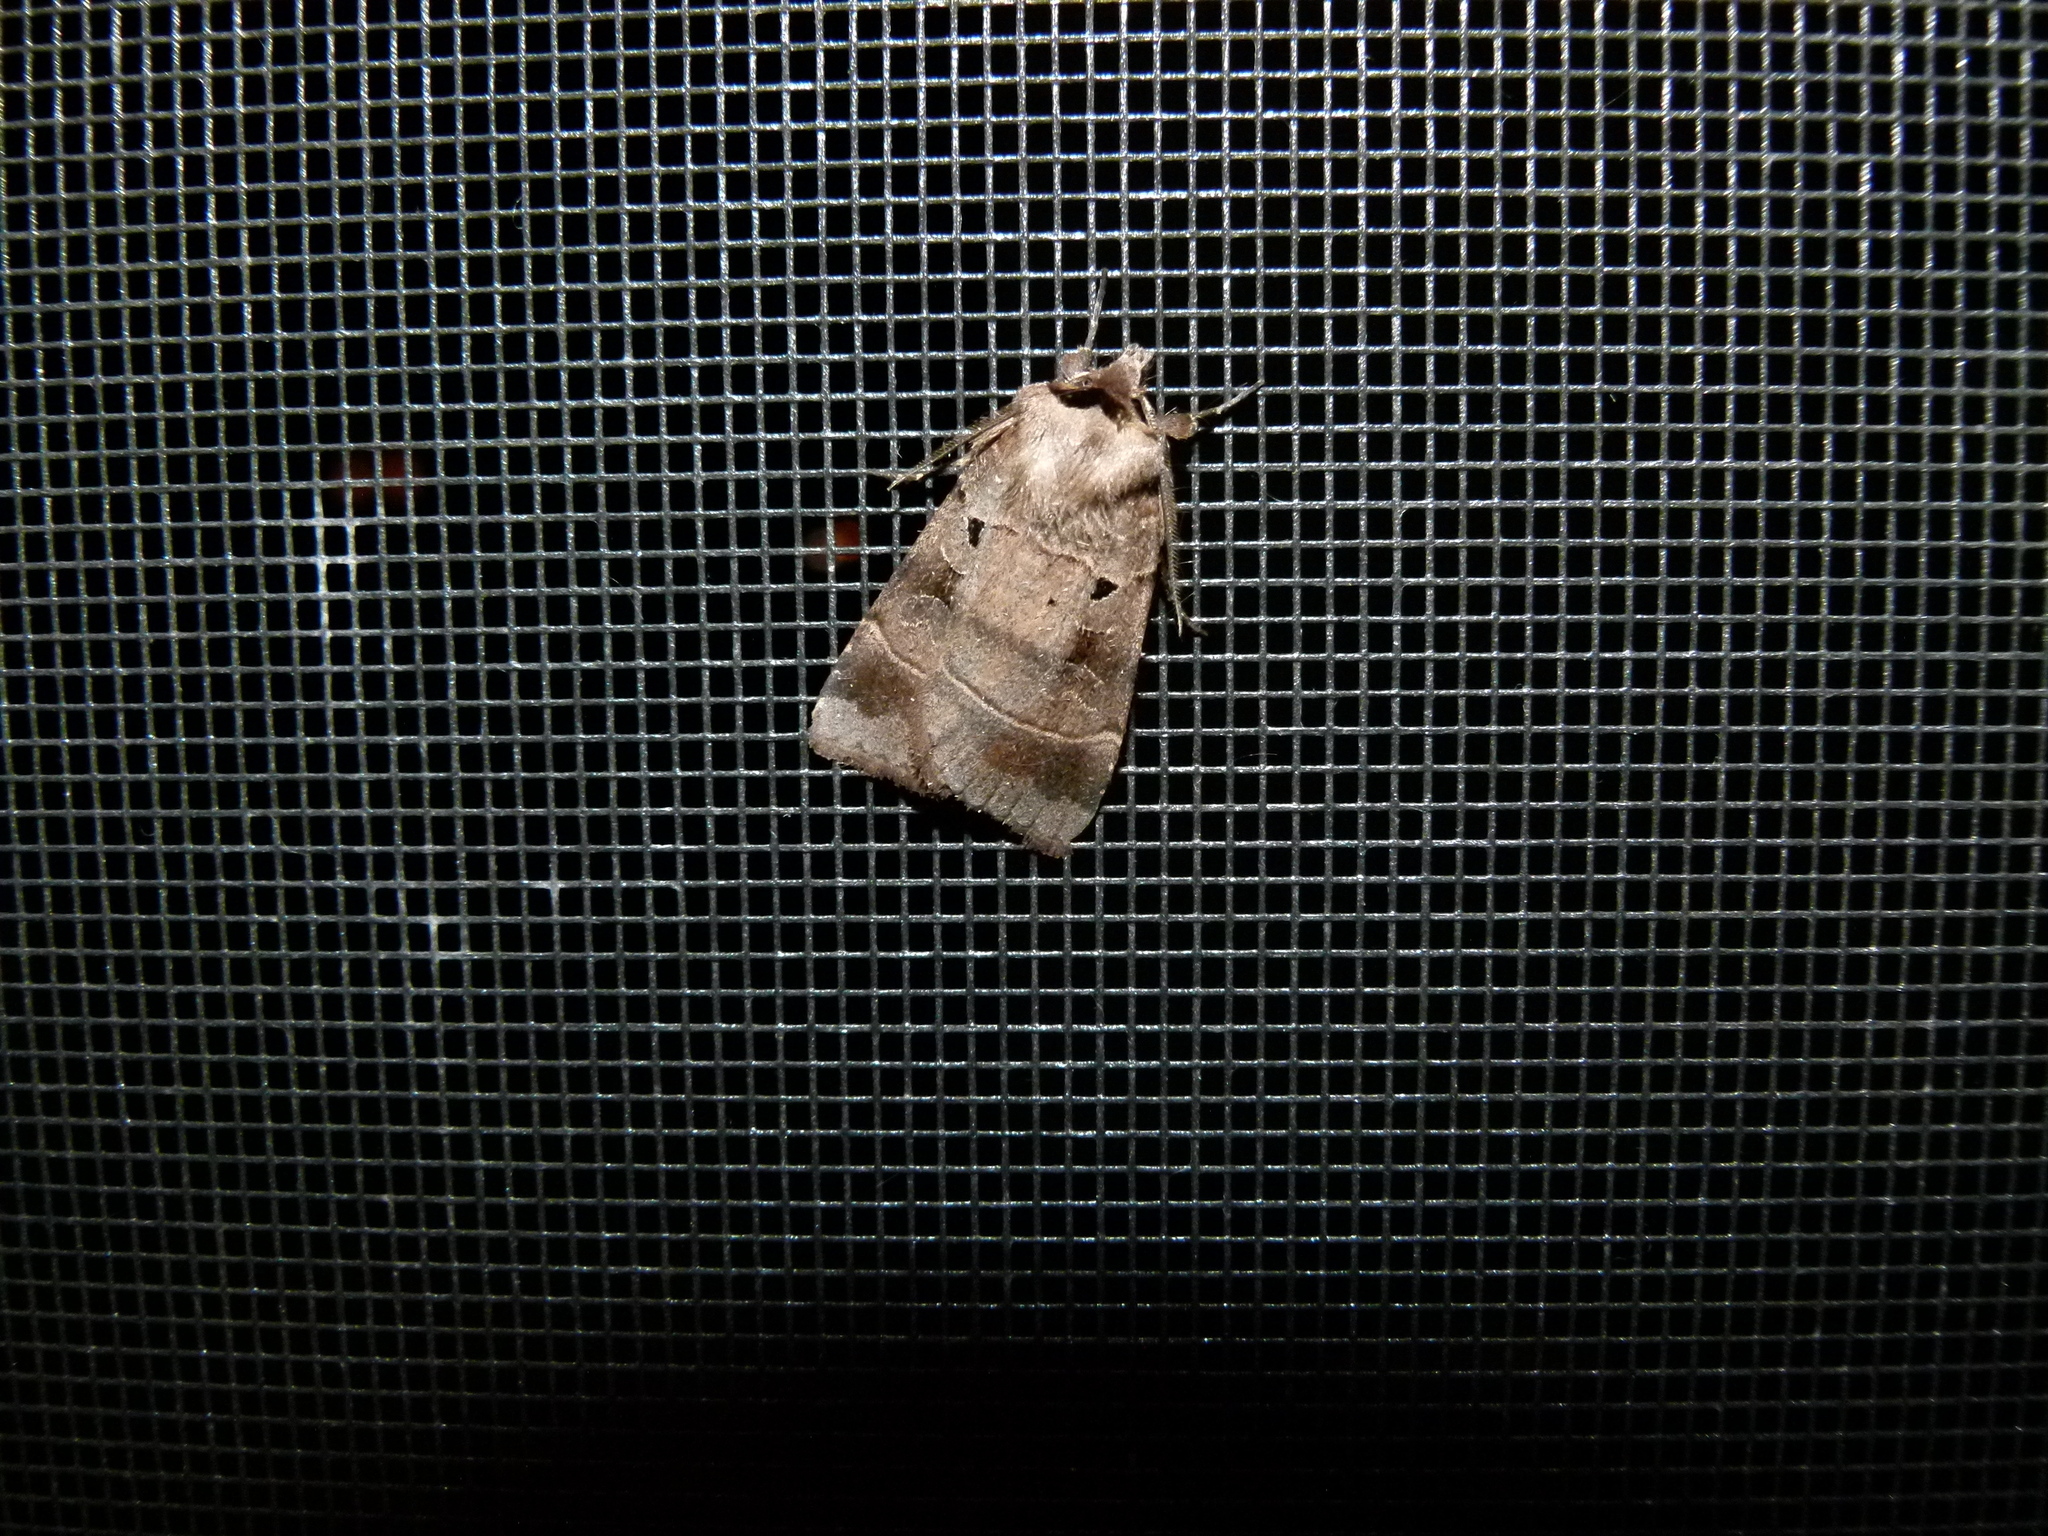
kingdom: Animalia
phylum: Arthropoda
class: Insecta
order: Lepidoptera
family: Noctuidae
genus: Agnorisma
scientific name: Agnorisma badinodis
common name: Pale-banded dart
